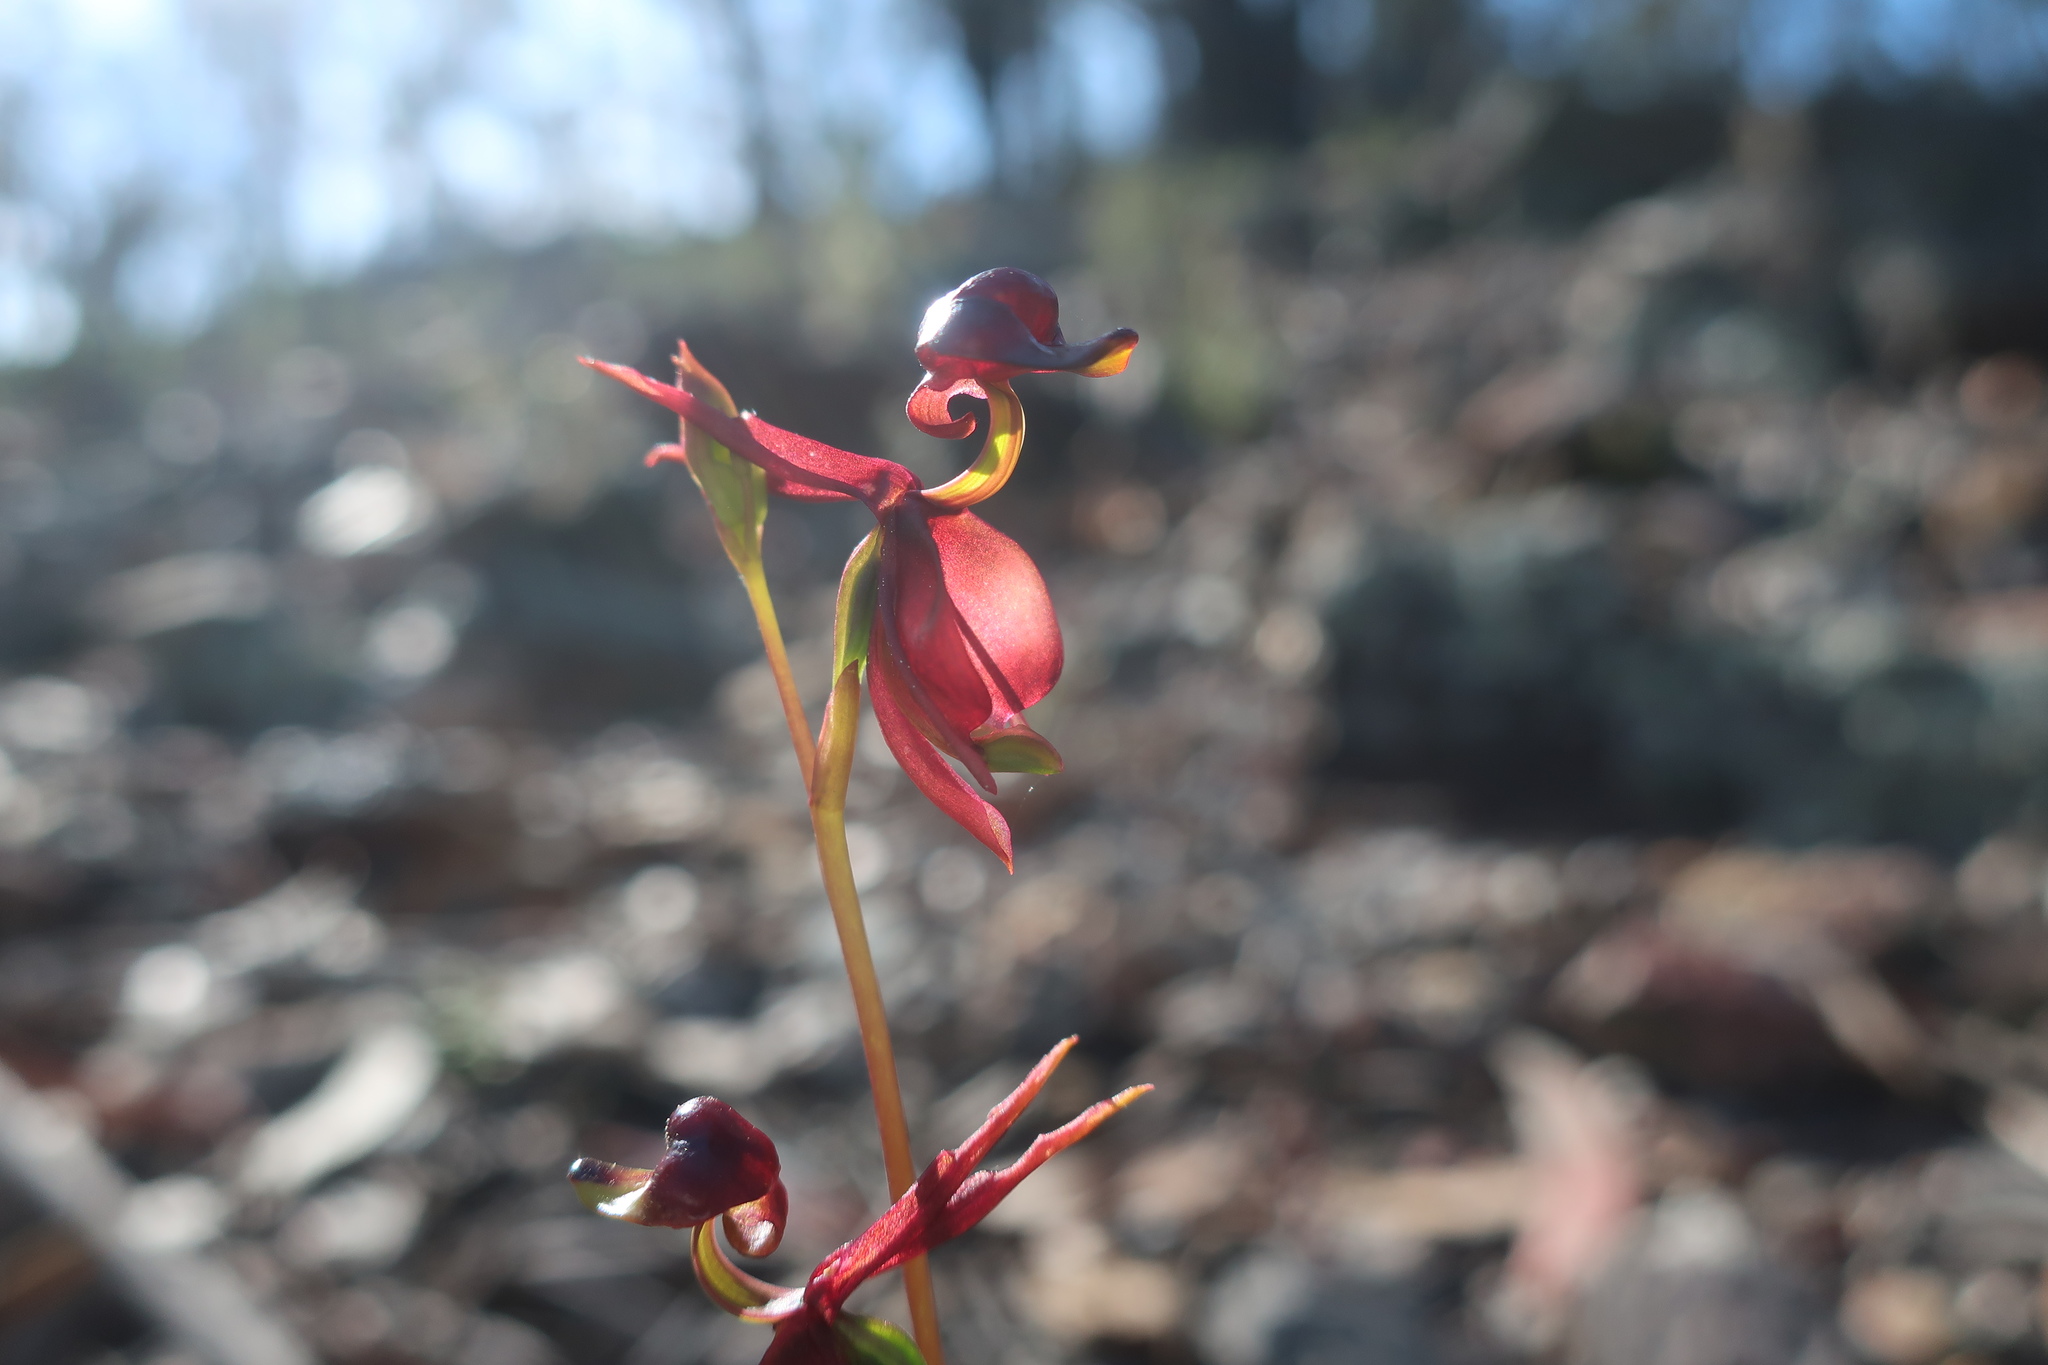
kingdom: Plantae
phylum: Tracheophyta
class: Liliopsida
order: Asparagales
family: Orchidaceae
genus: Caleana
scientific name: Caleana major
